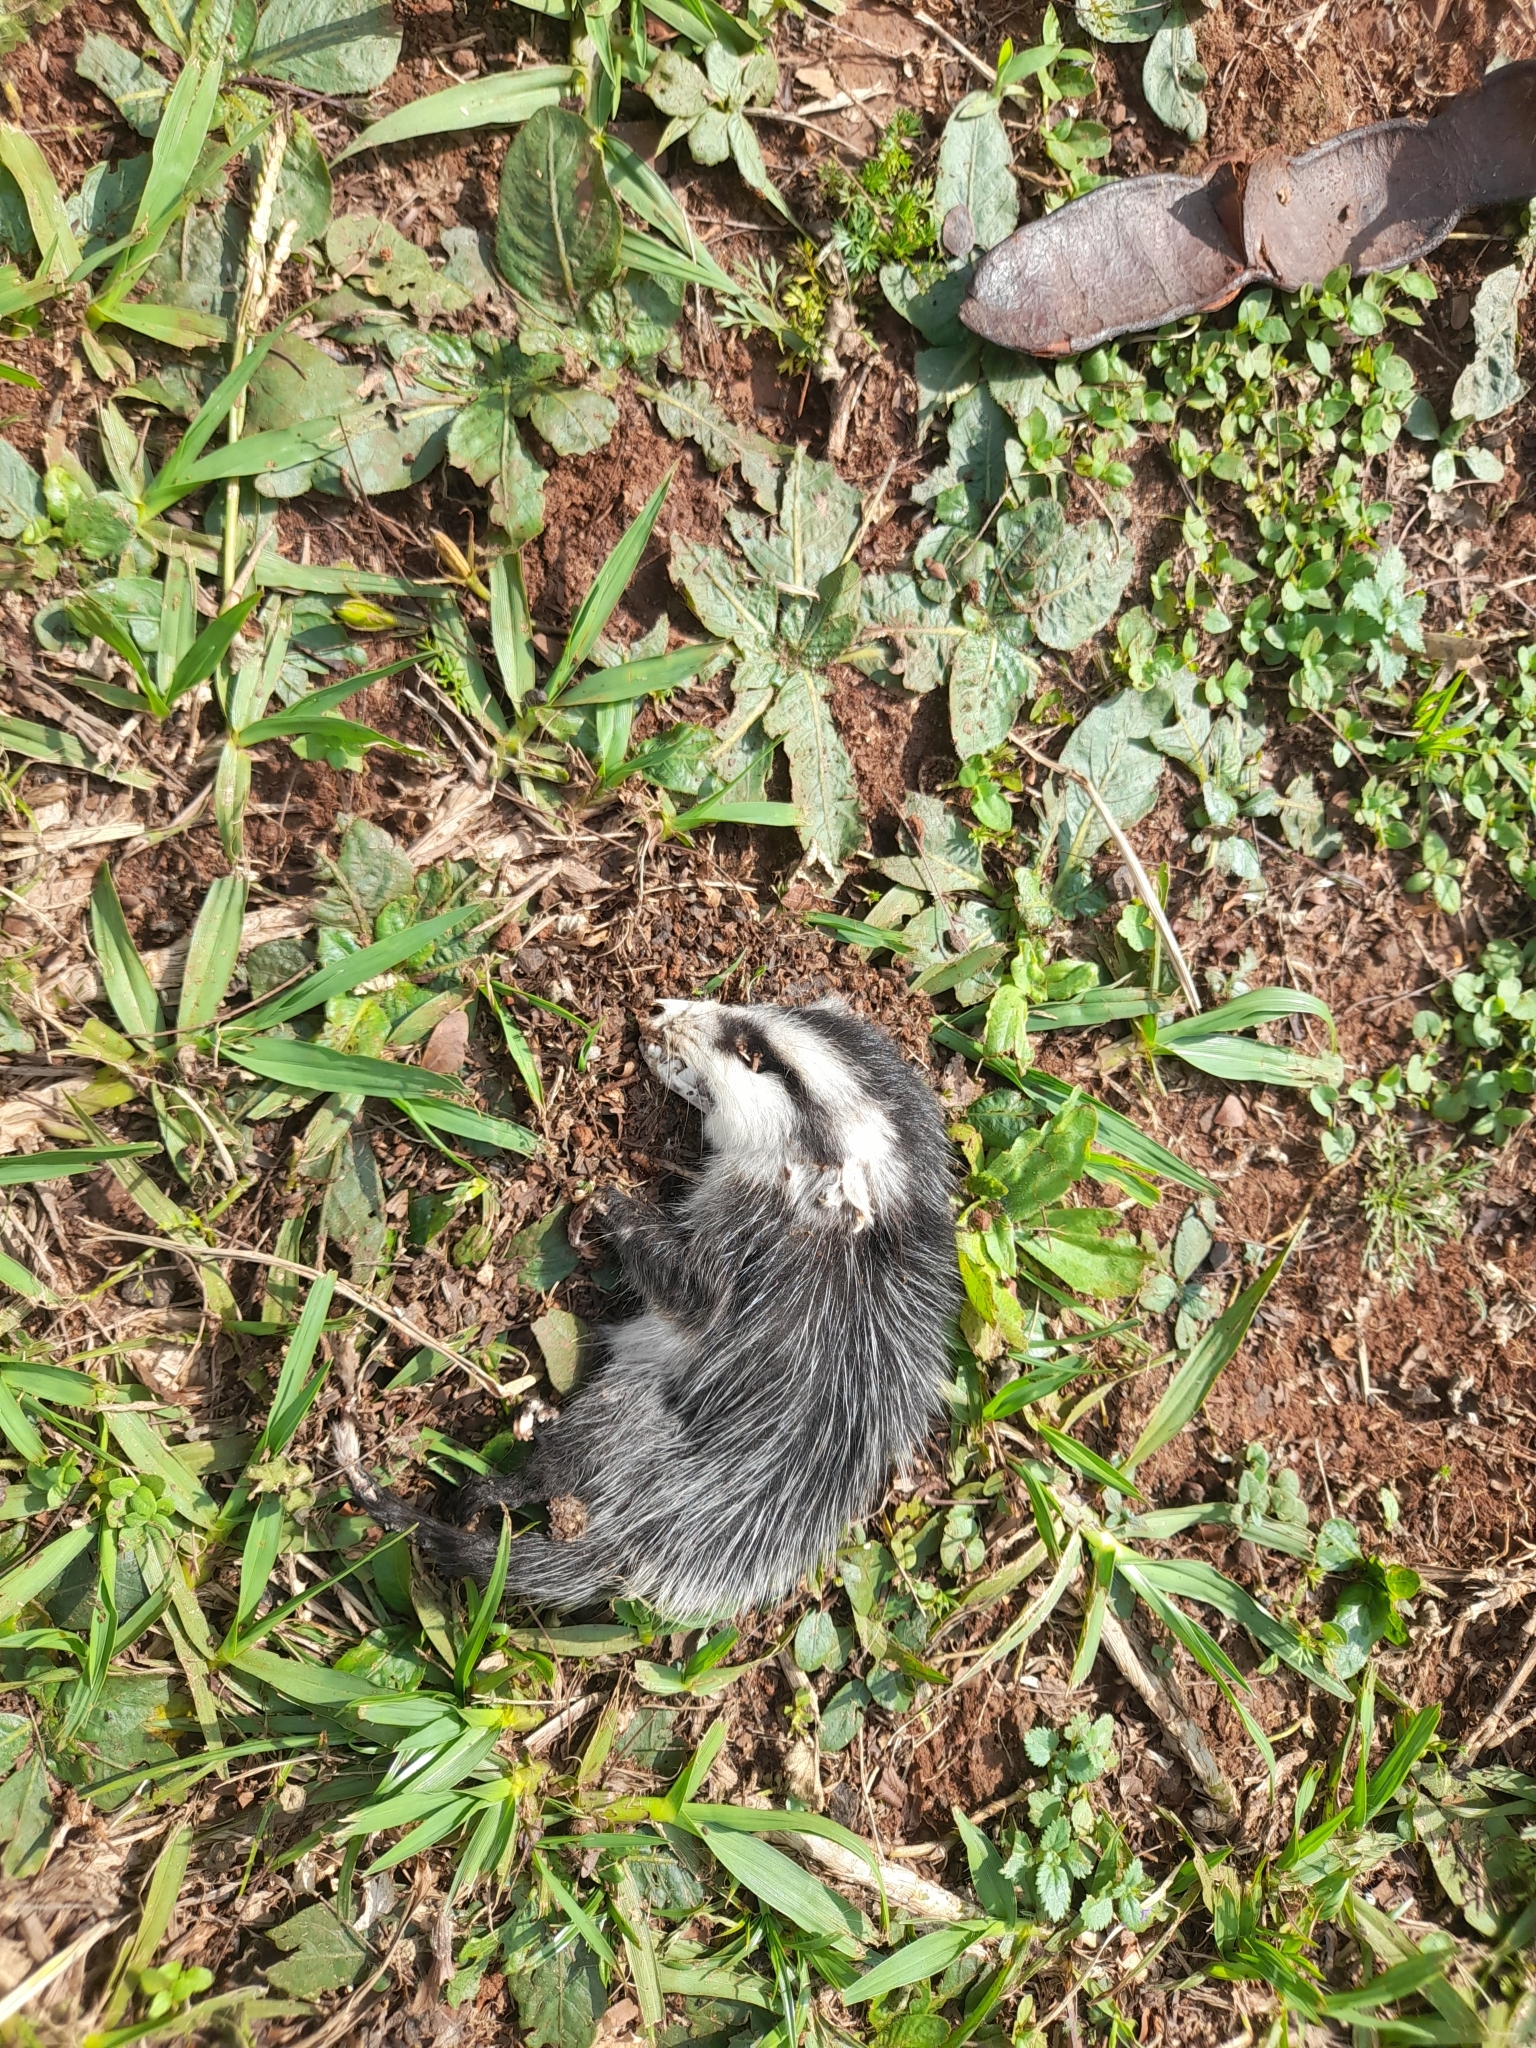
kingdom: Animalia
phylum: Chordata
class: Mammalia
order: Didelphimorphia
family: Didelphidae
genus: Didelphis
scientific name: Didelphis albiventris
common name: White-eared opossum
